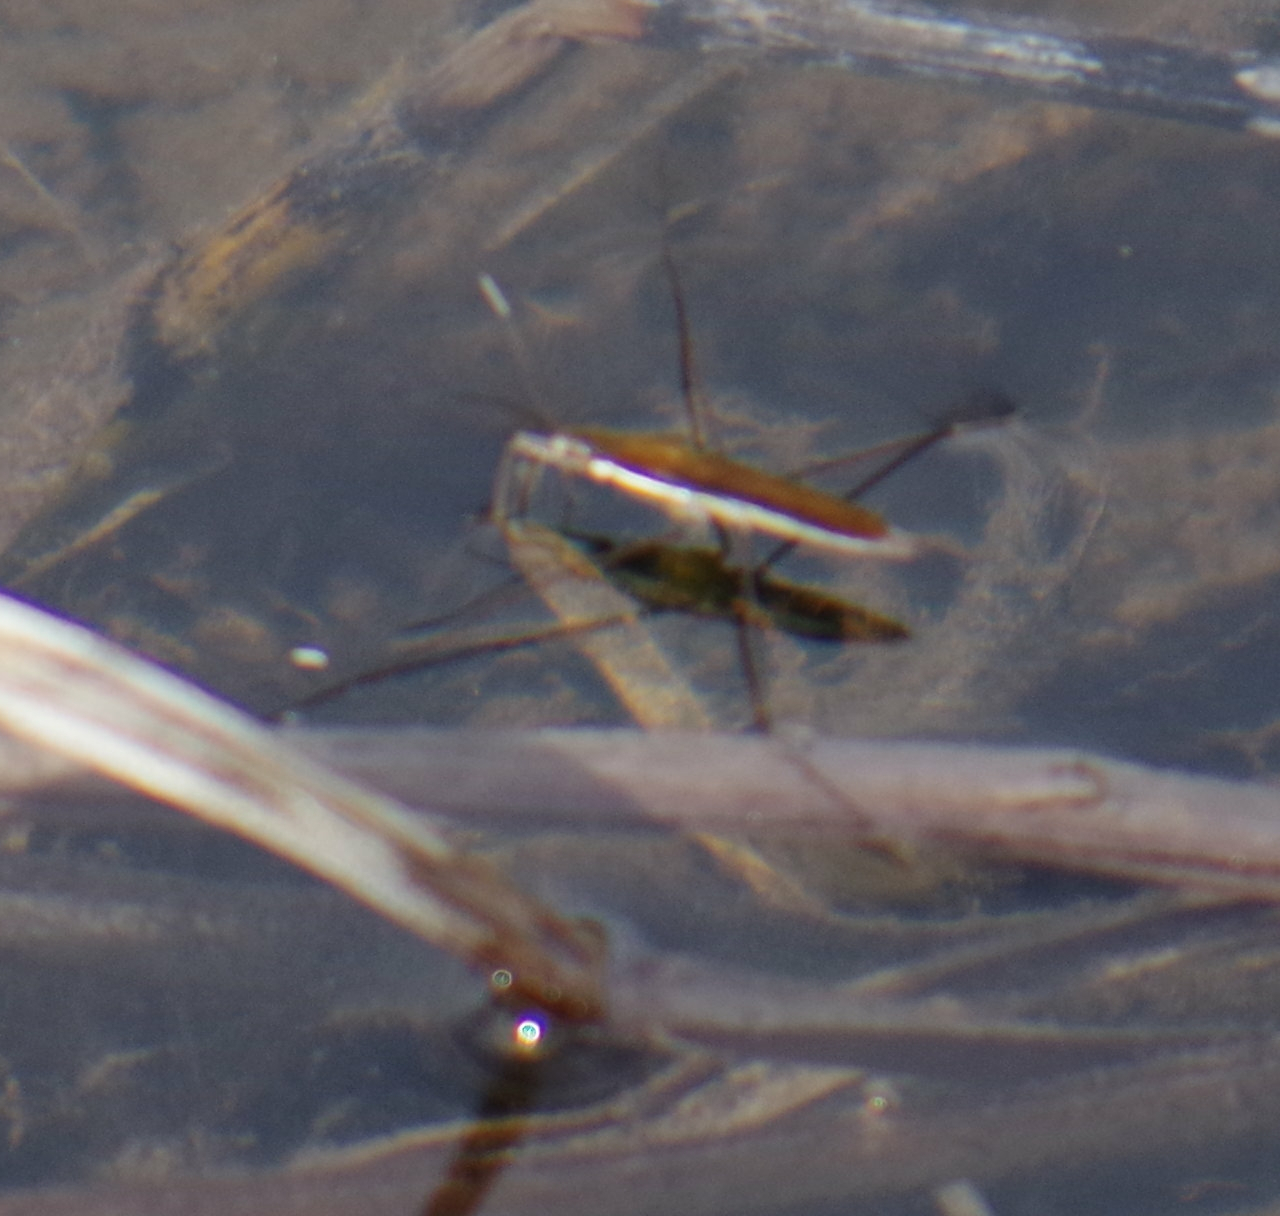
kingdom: Animalia
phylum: Arthropoda
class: Insecta
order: Hemiptera
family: Gerridae
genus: Limnoporus
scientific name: Limnoporus dissortis
